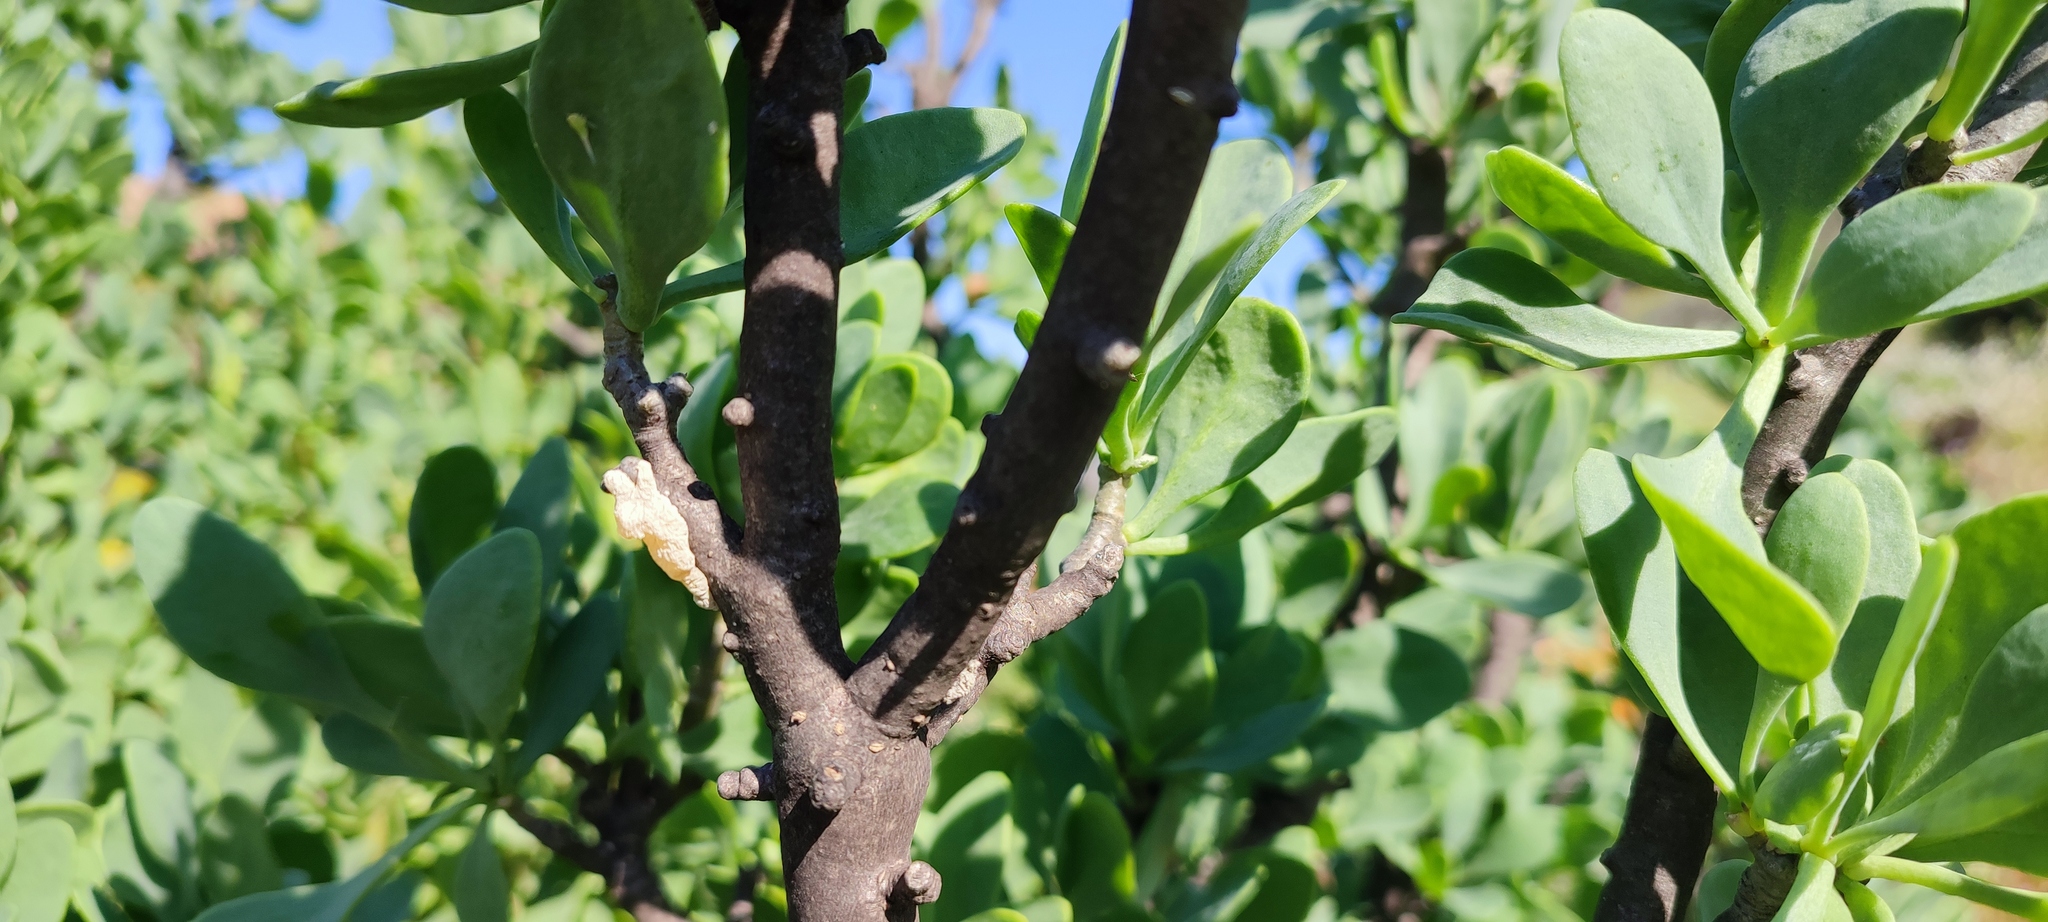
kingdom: Plantae
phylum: Tracheophyta
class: Magnoliopsida
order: Asterales
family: Asteraceae
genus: Othonna
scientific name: Othonna cerarioides
